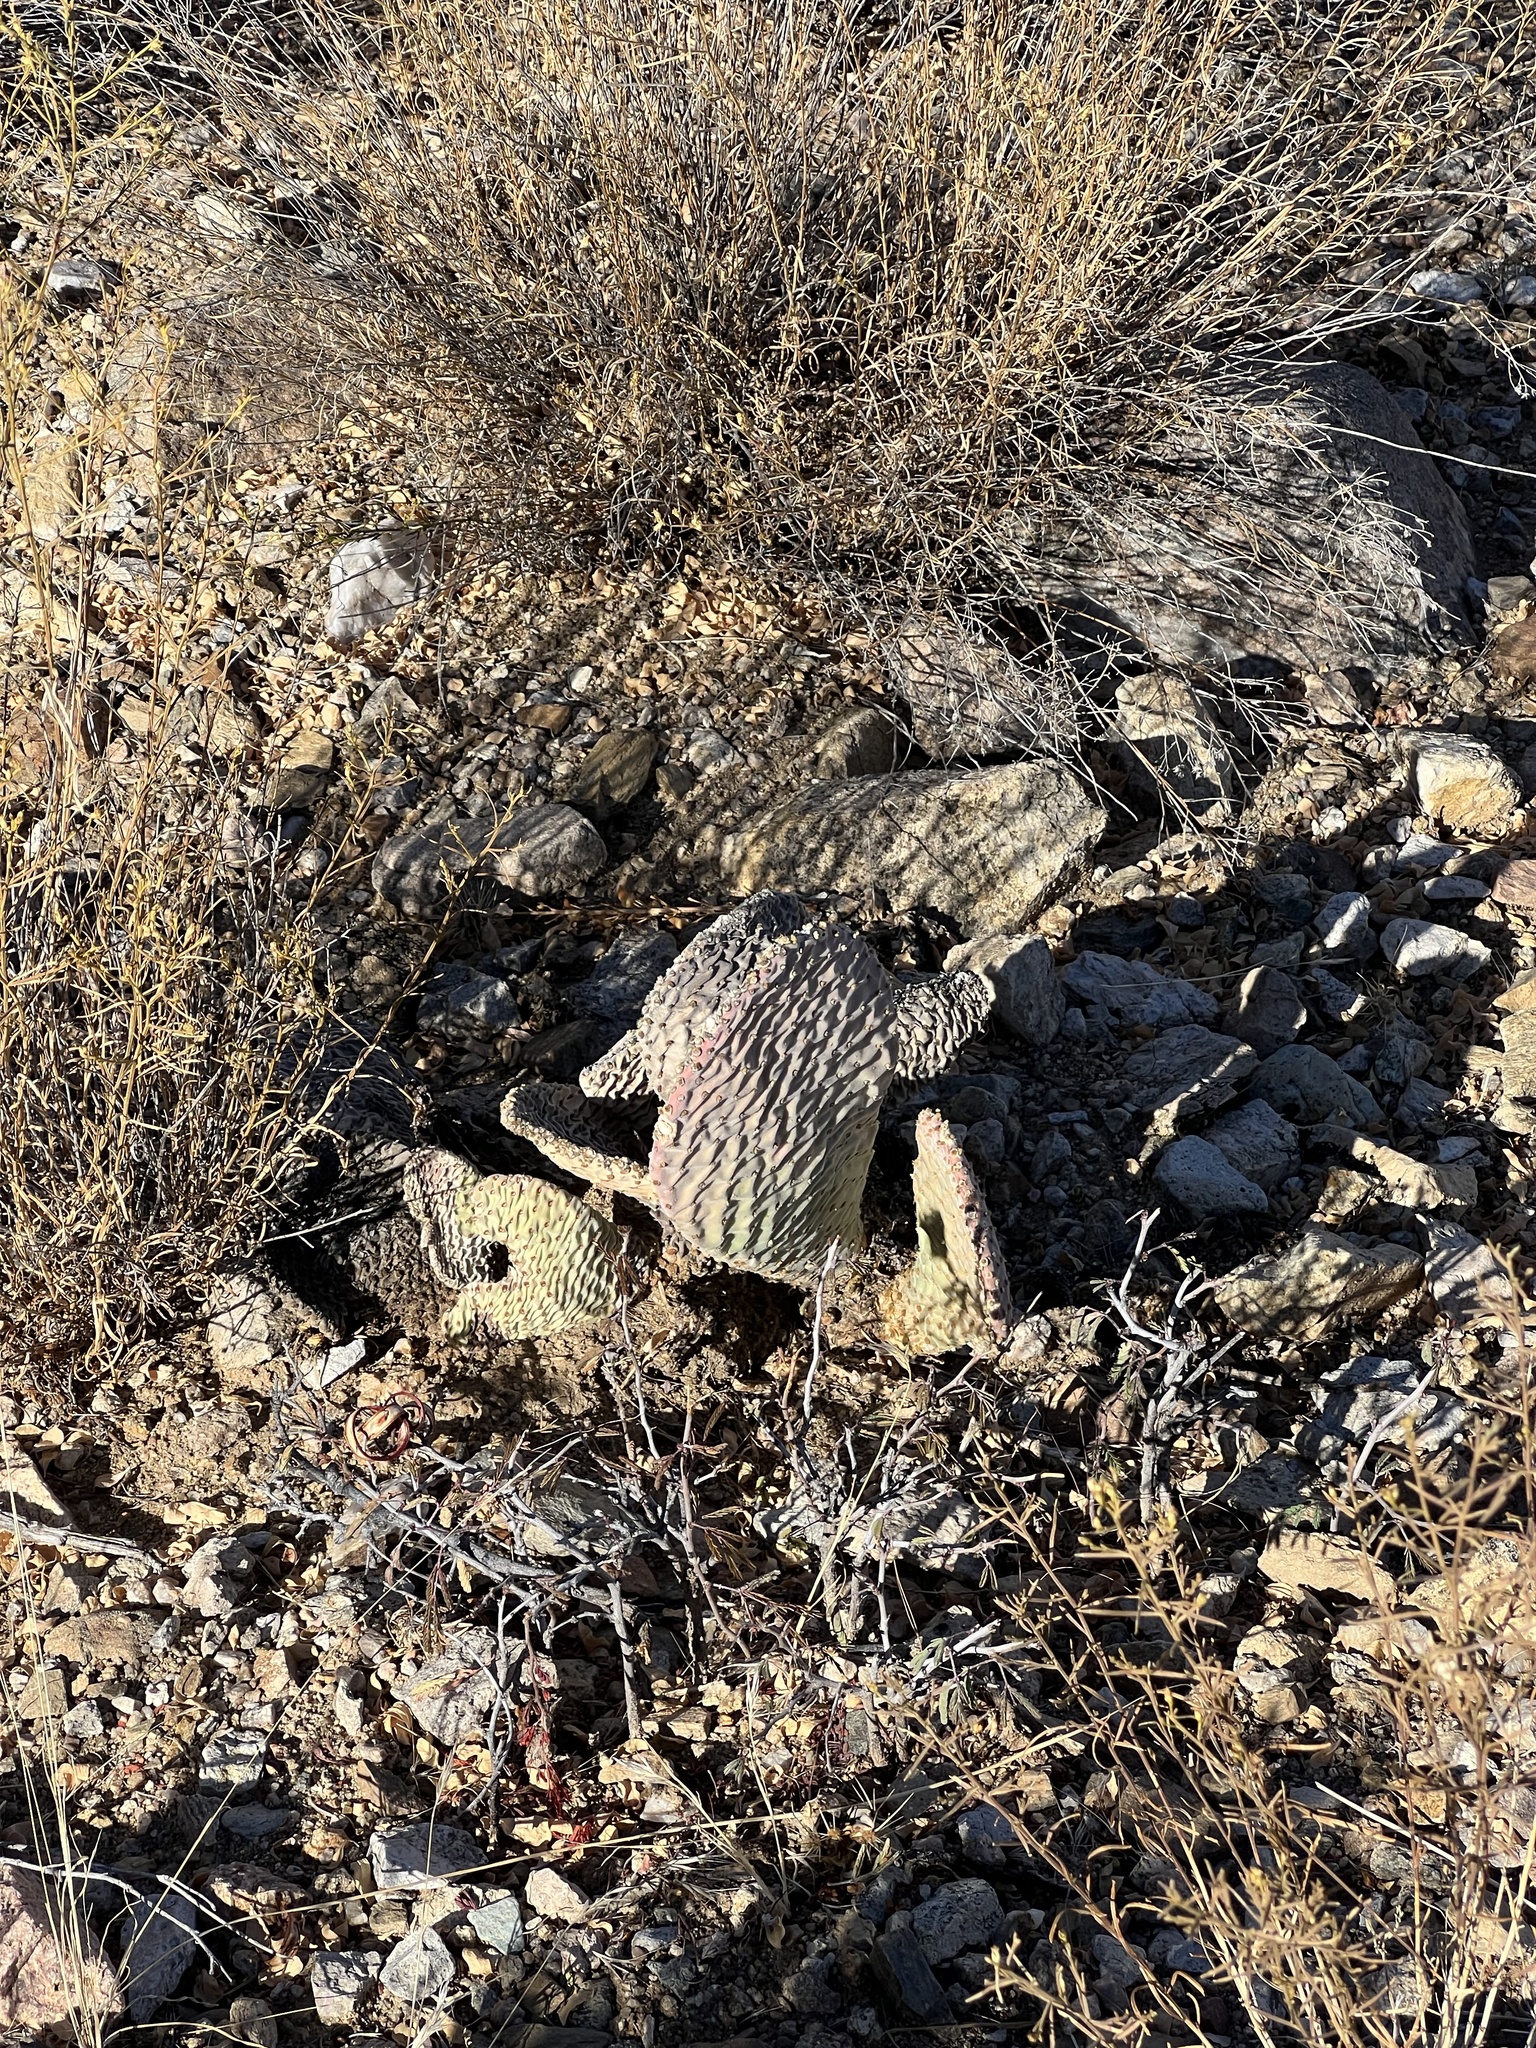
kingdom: Plantae
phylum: Tracheophyta
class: Magnoliopsida
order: Caryophyllales
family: Cactaceae
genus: Opuntia
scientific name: Opuntia basilaris
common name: Beavertail prickly-pear
